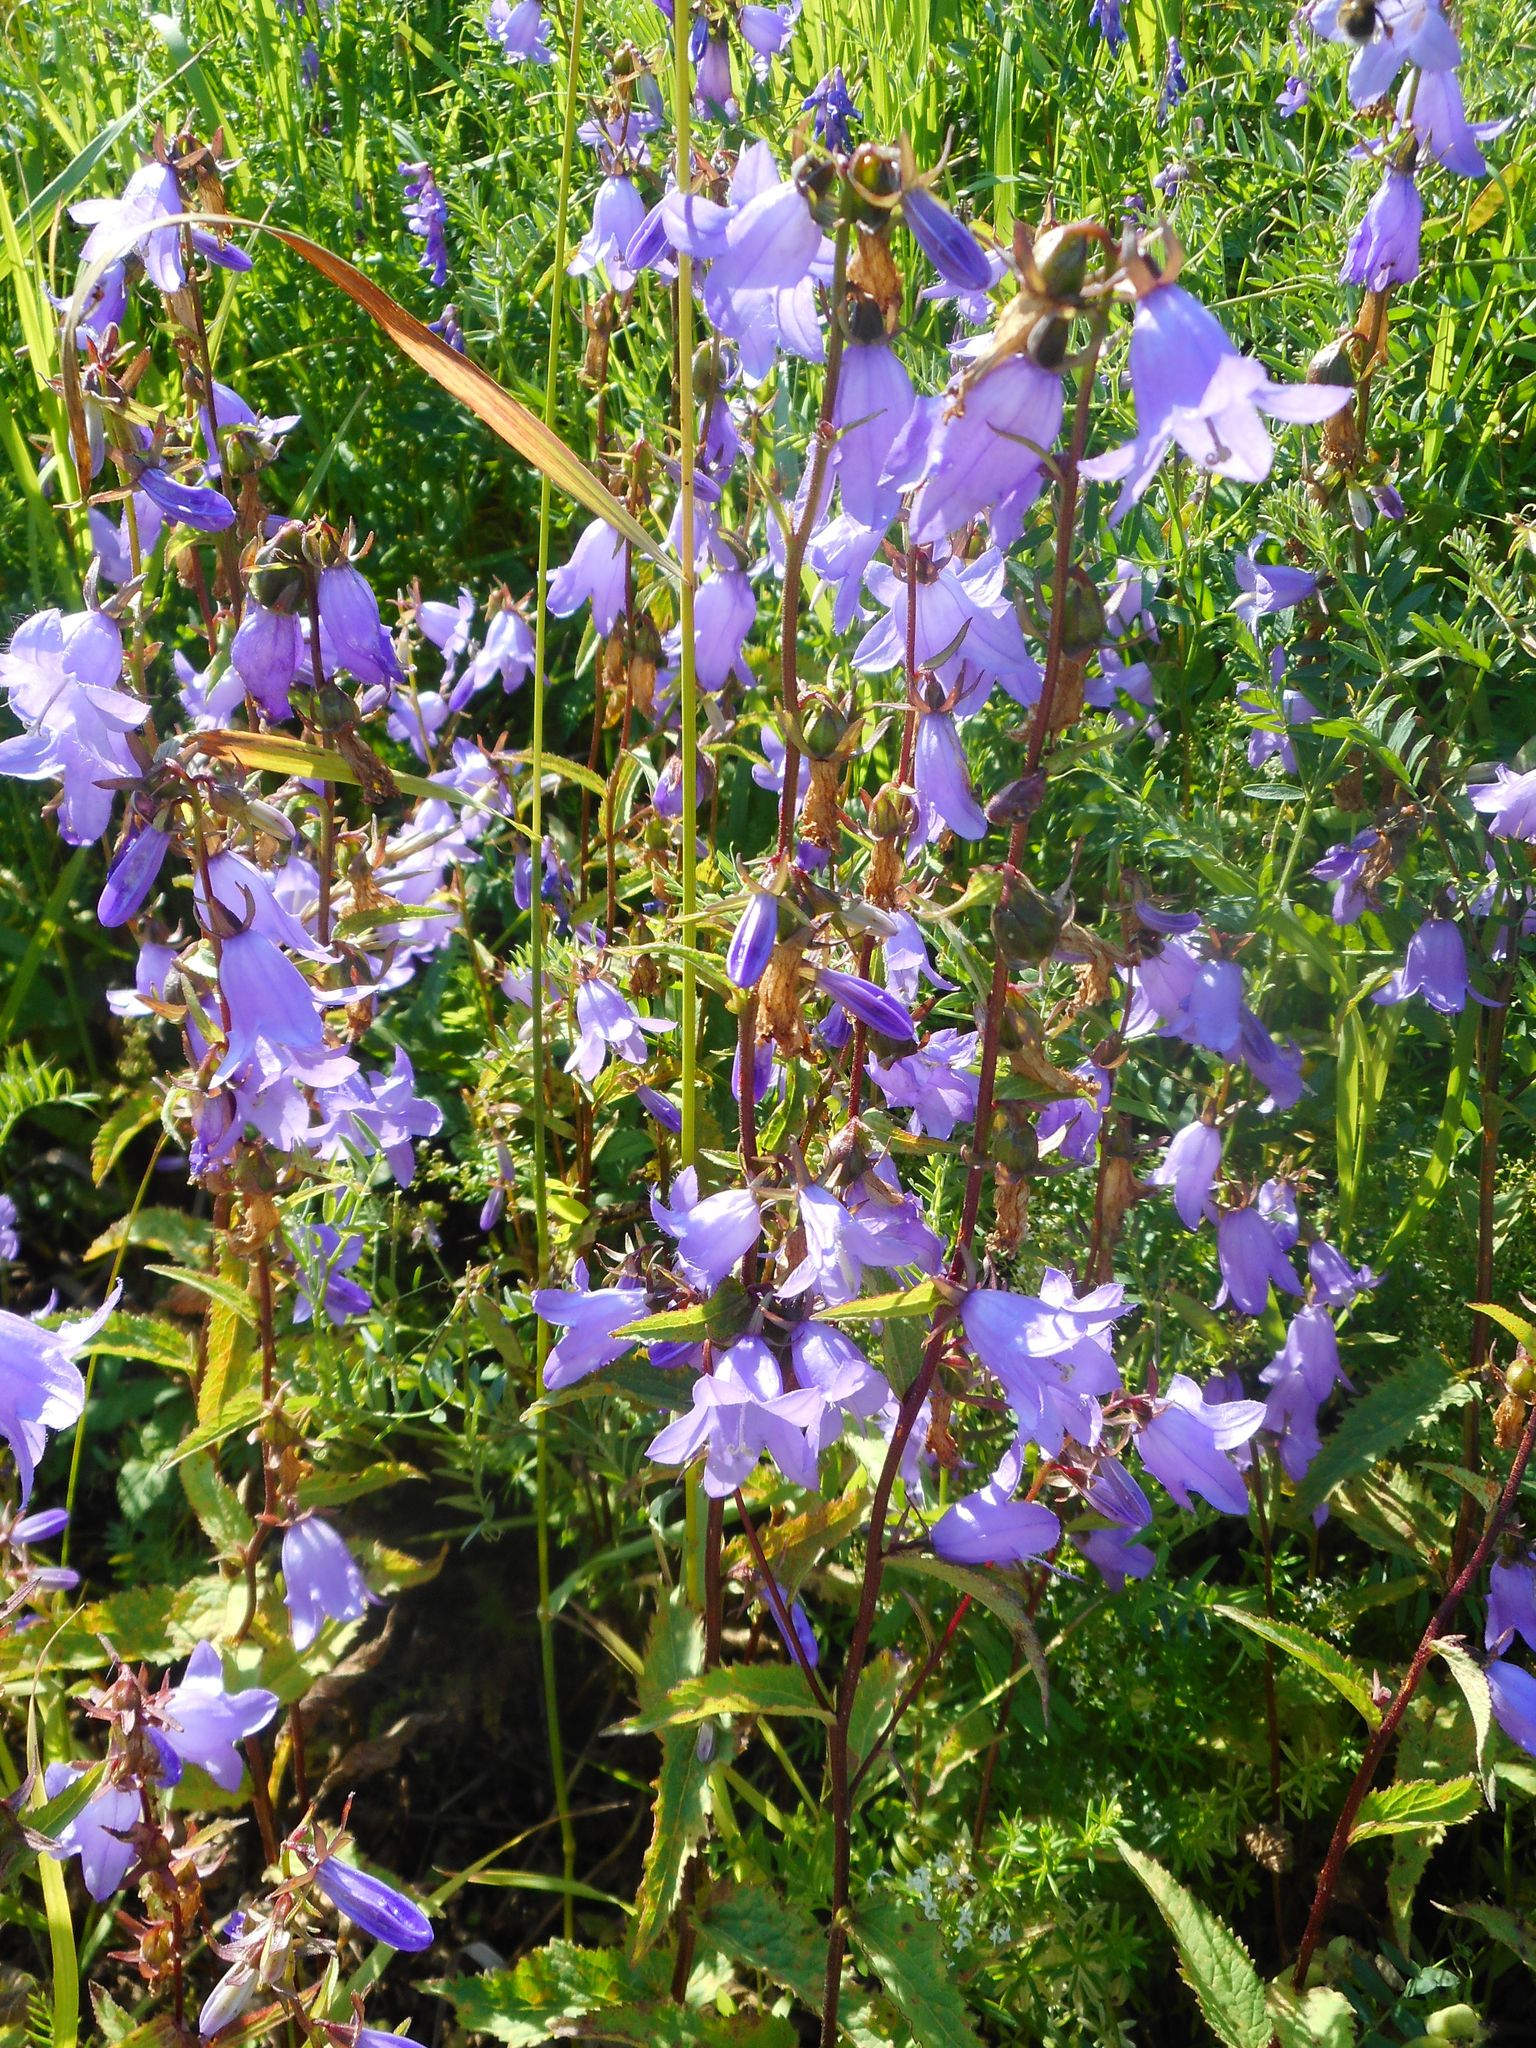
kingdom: Plantae
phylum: Tracheophyta
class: Magnoliopsida
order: Asterales
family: Campanulaceae
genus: Campanula
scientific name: Campanula rapunculoides
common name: Creeping bellflower
